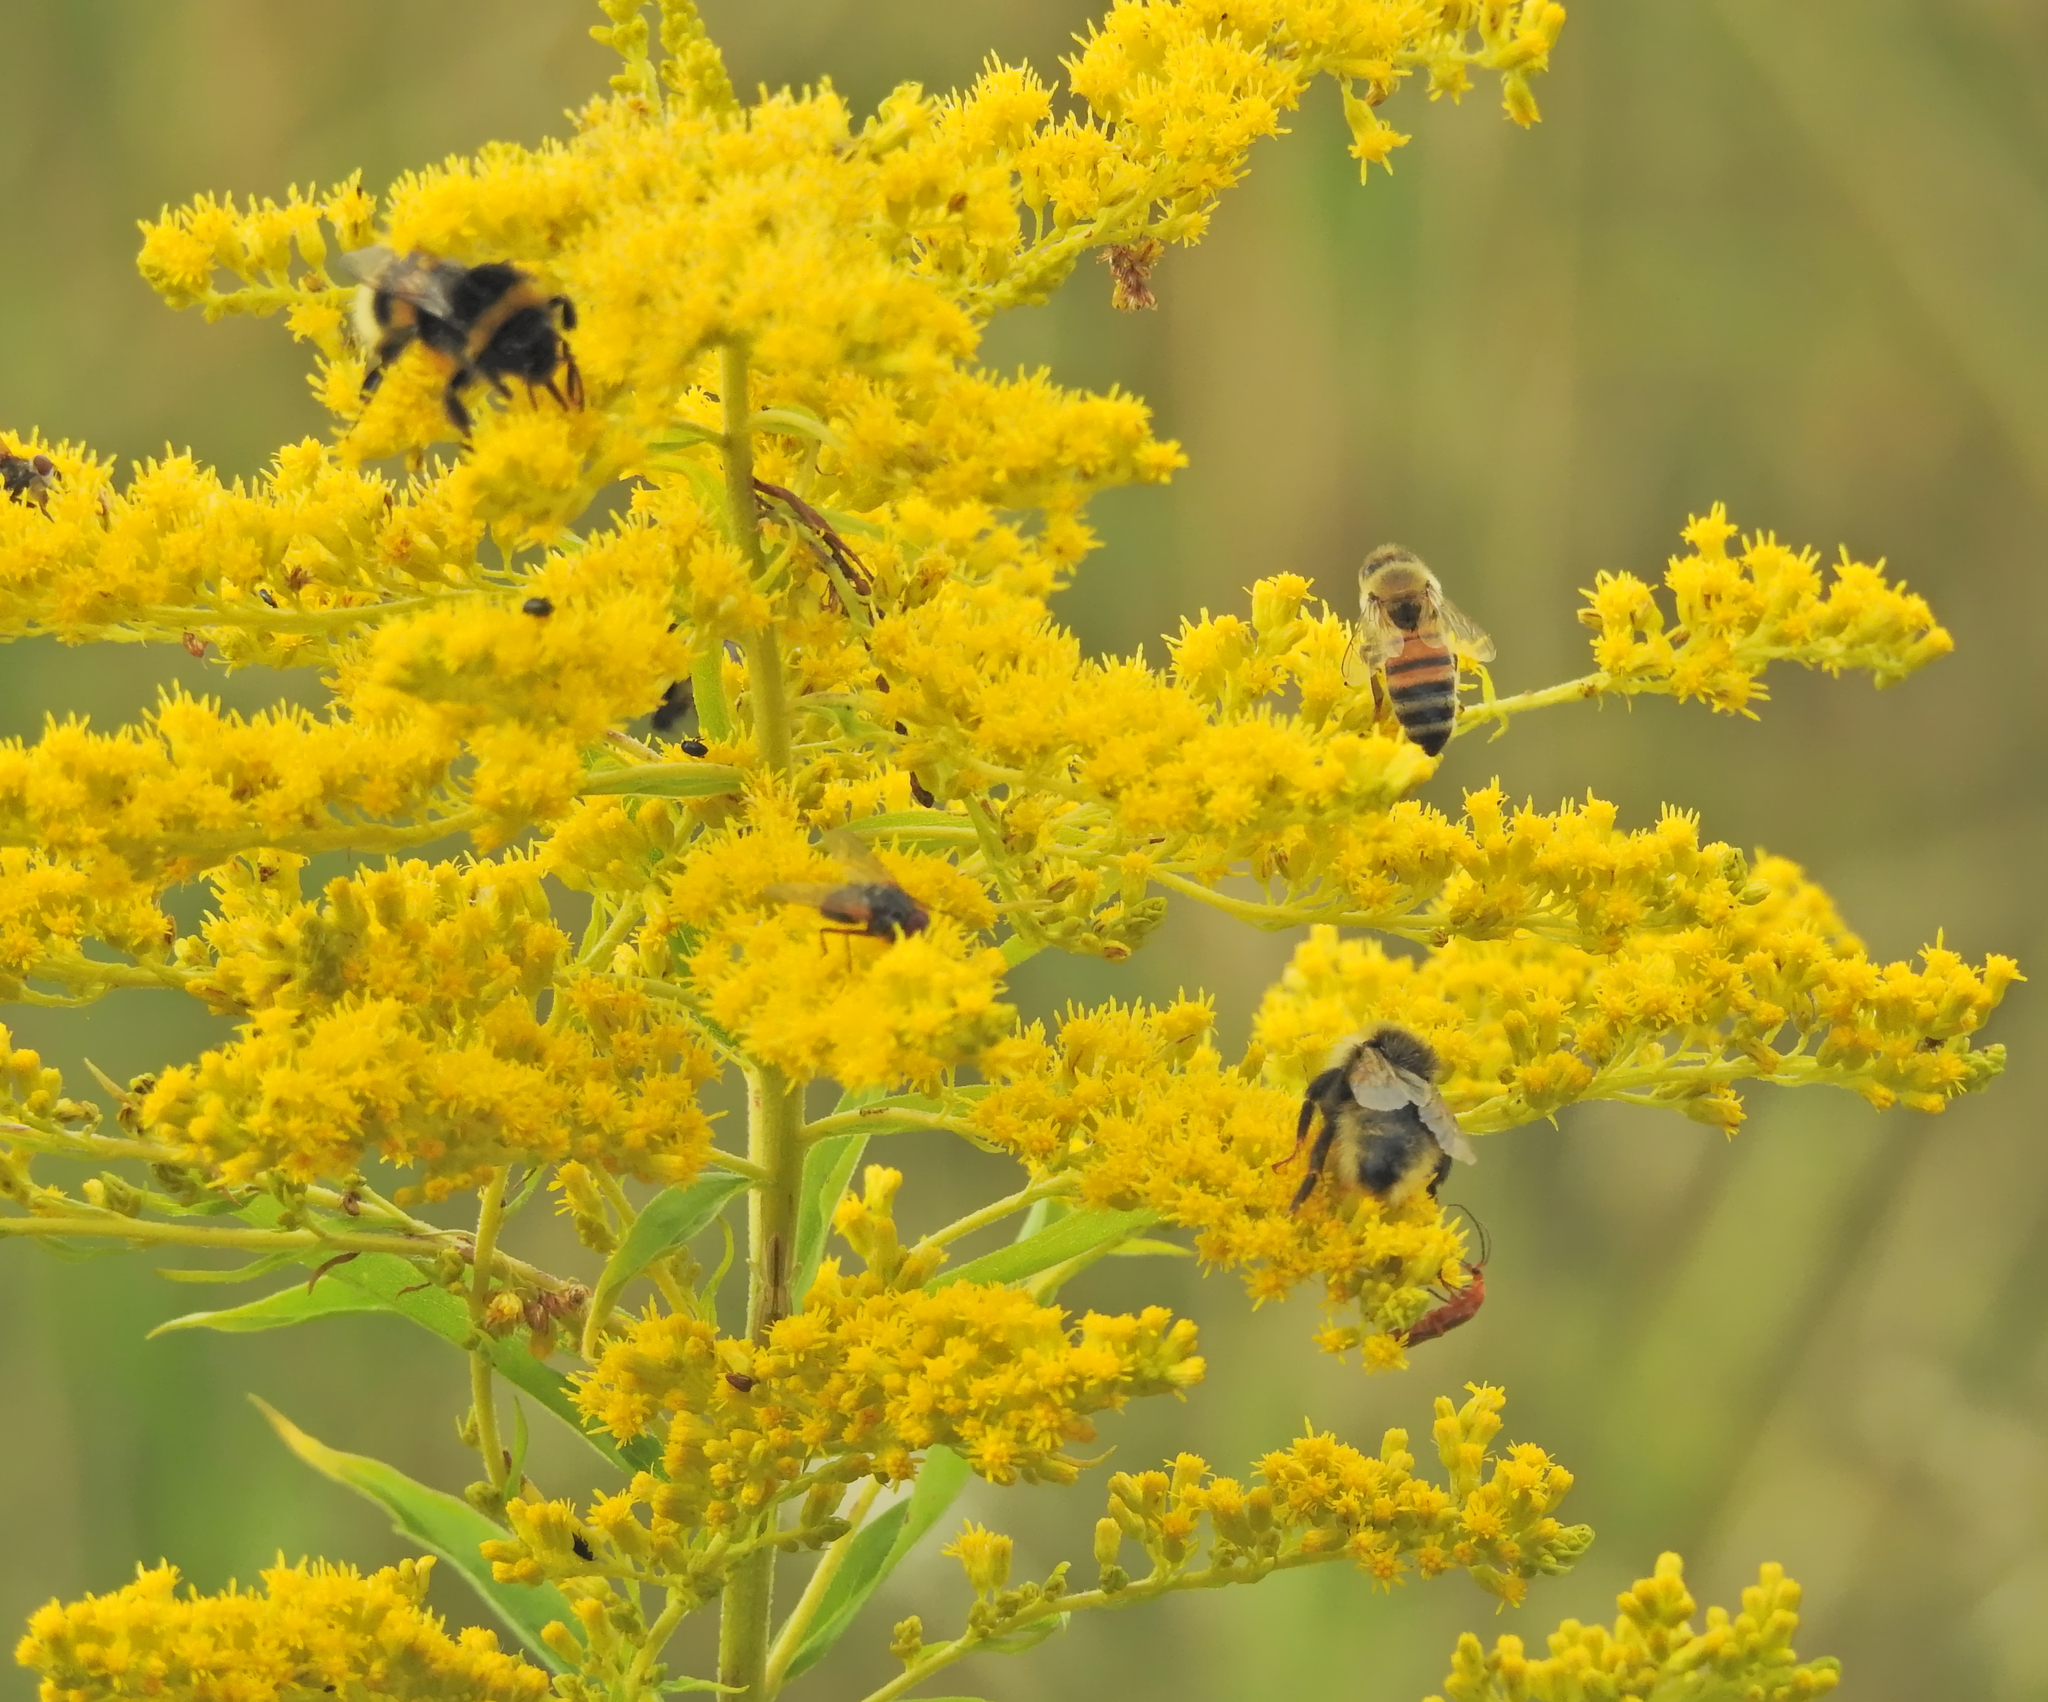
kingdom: Animalia
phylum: Arthropoda
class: Insecta
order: Hymenoptera
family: Apidae
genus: Apis
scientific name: Apis mellifera
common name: Honey bee
